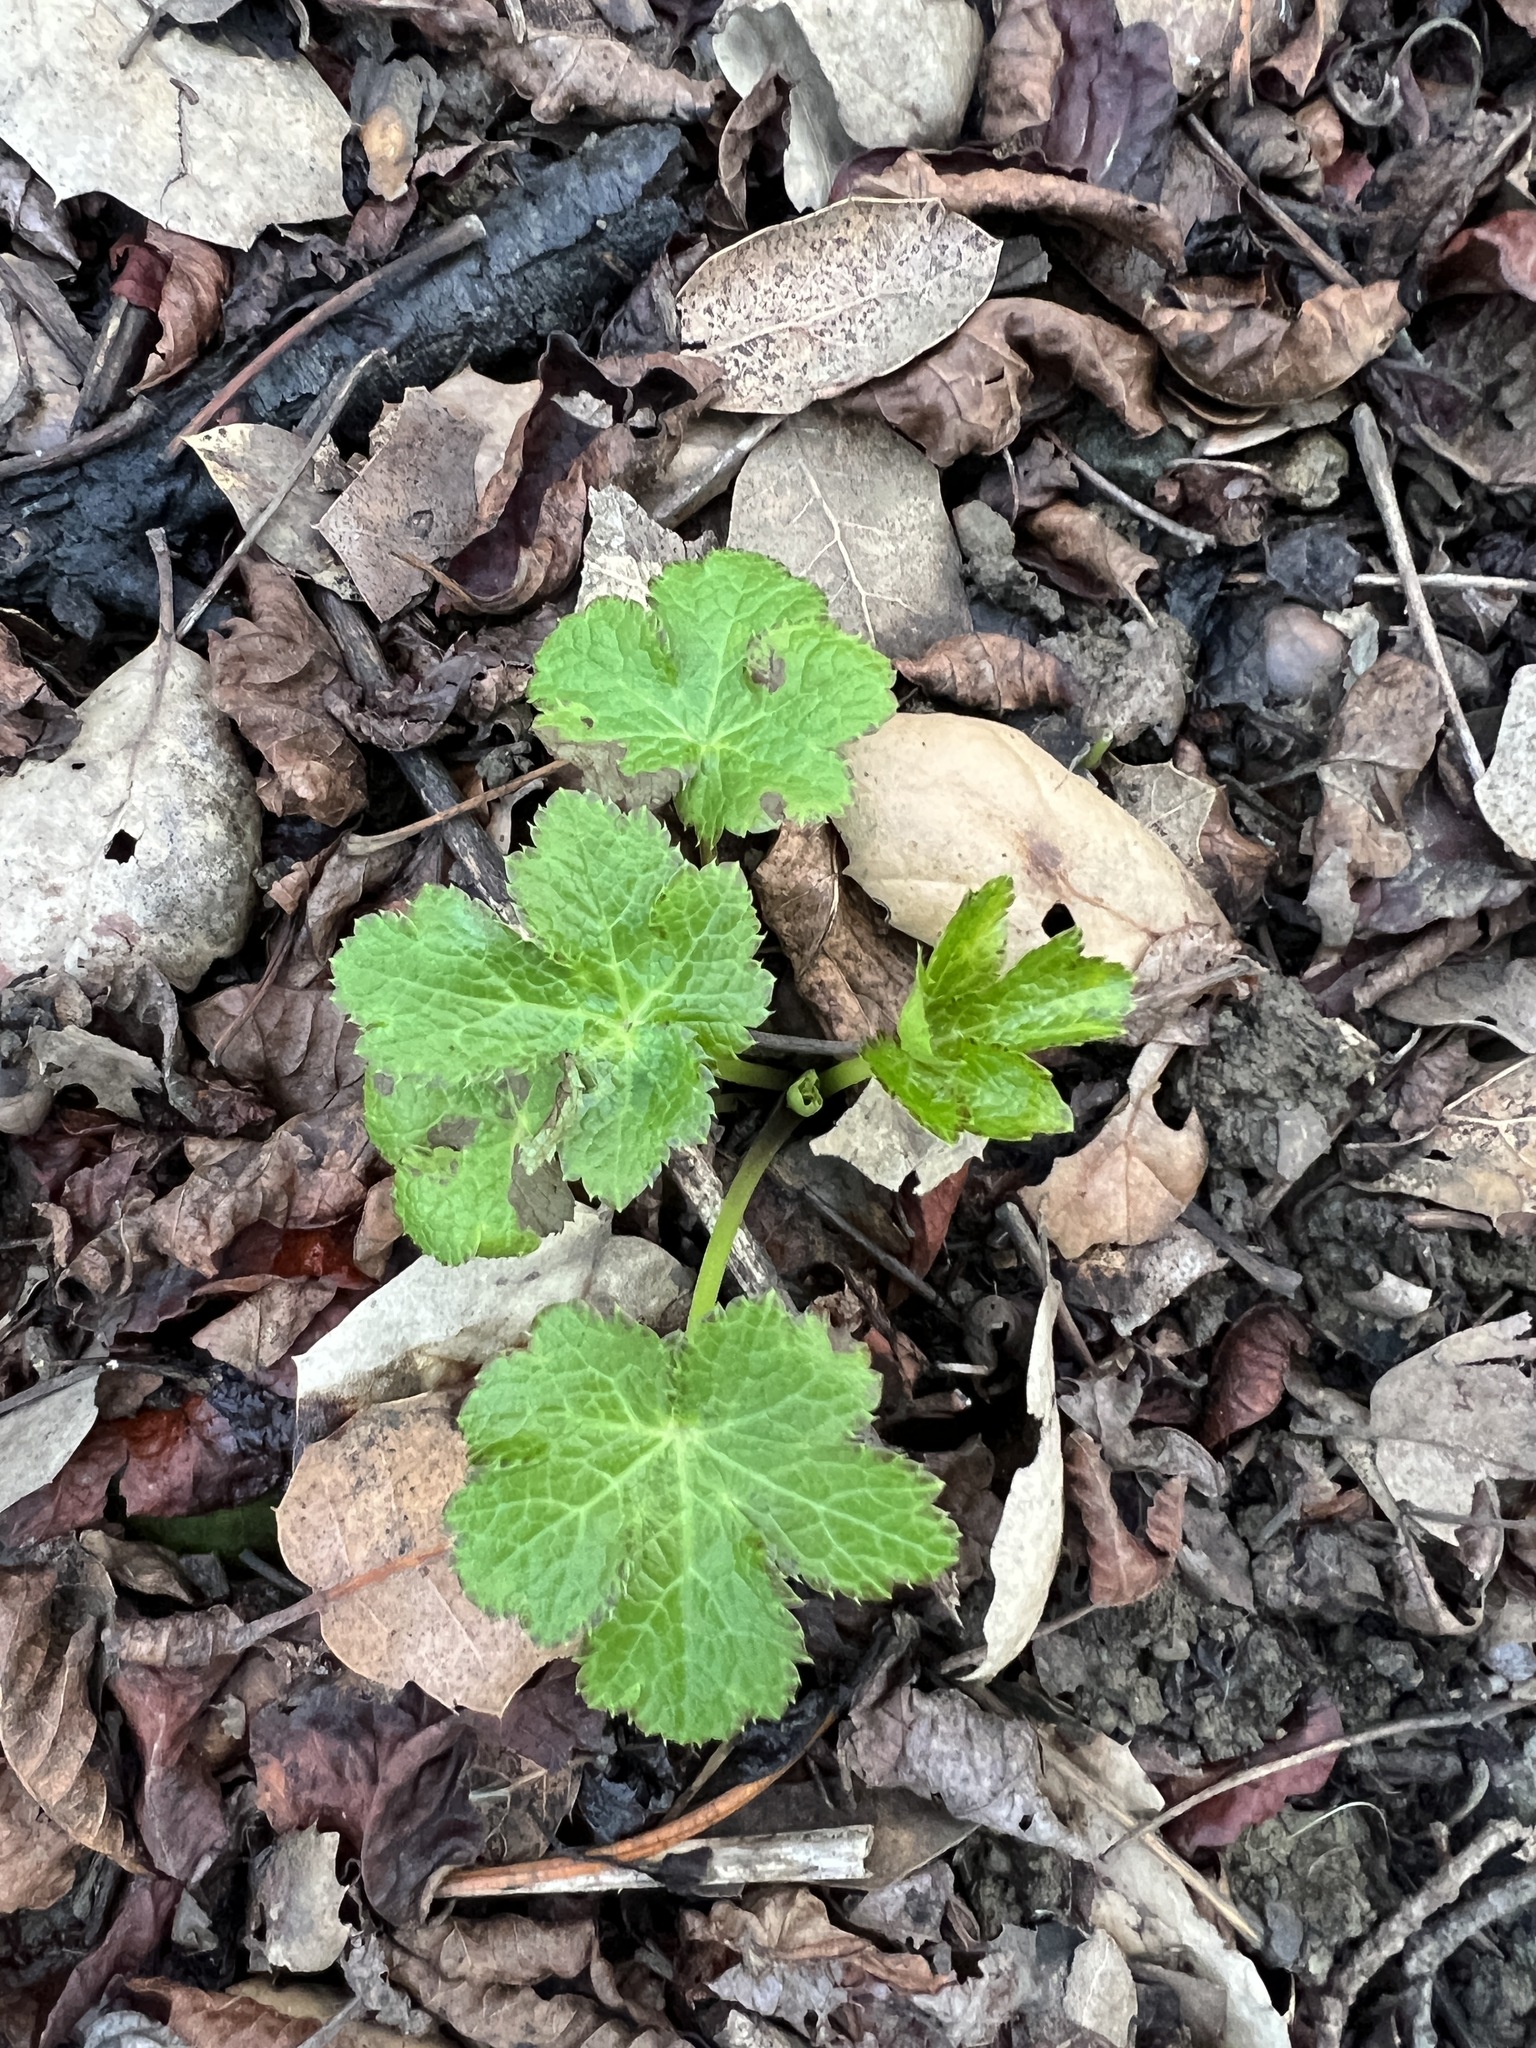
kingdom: Plantae
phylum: Tracheophyta
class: Magnoliopsida
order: Apiales
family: Apiaceae
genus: Sanicula
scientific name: Sanicula crassicaulis
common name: Western snakeroot
